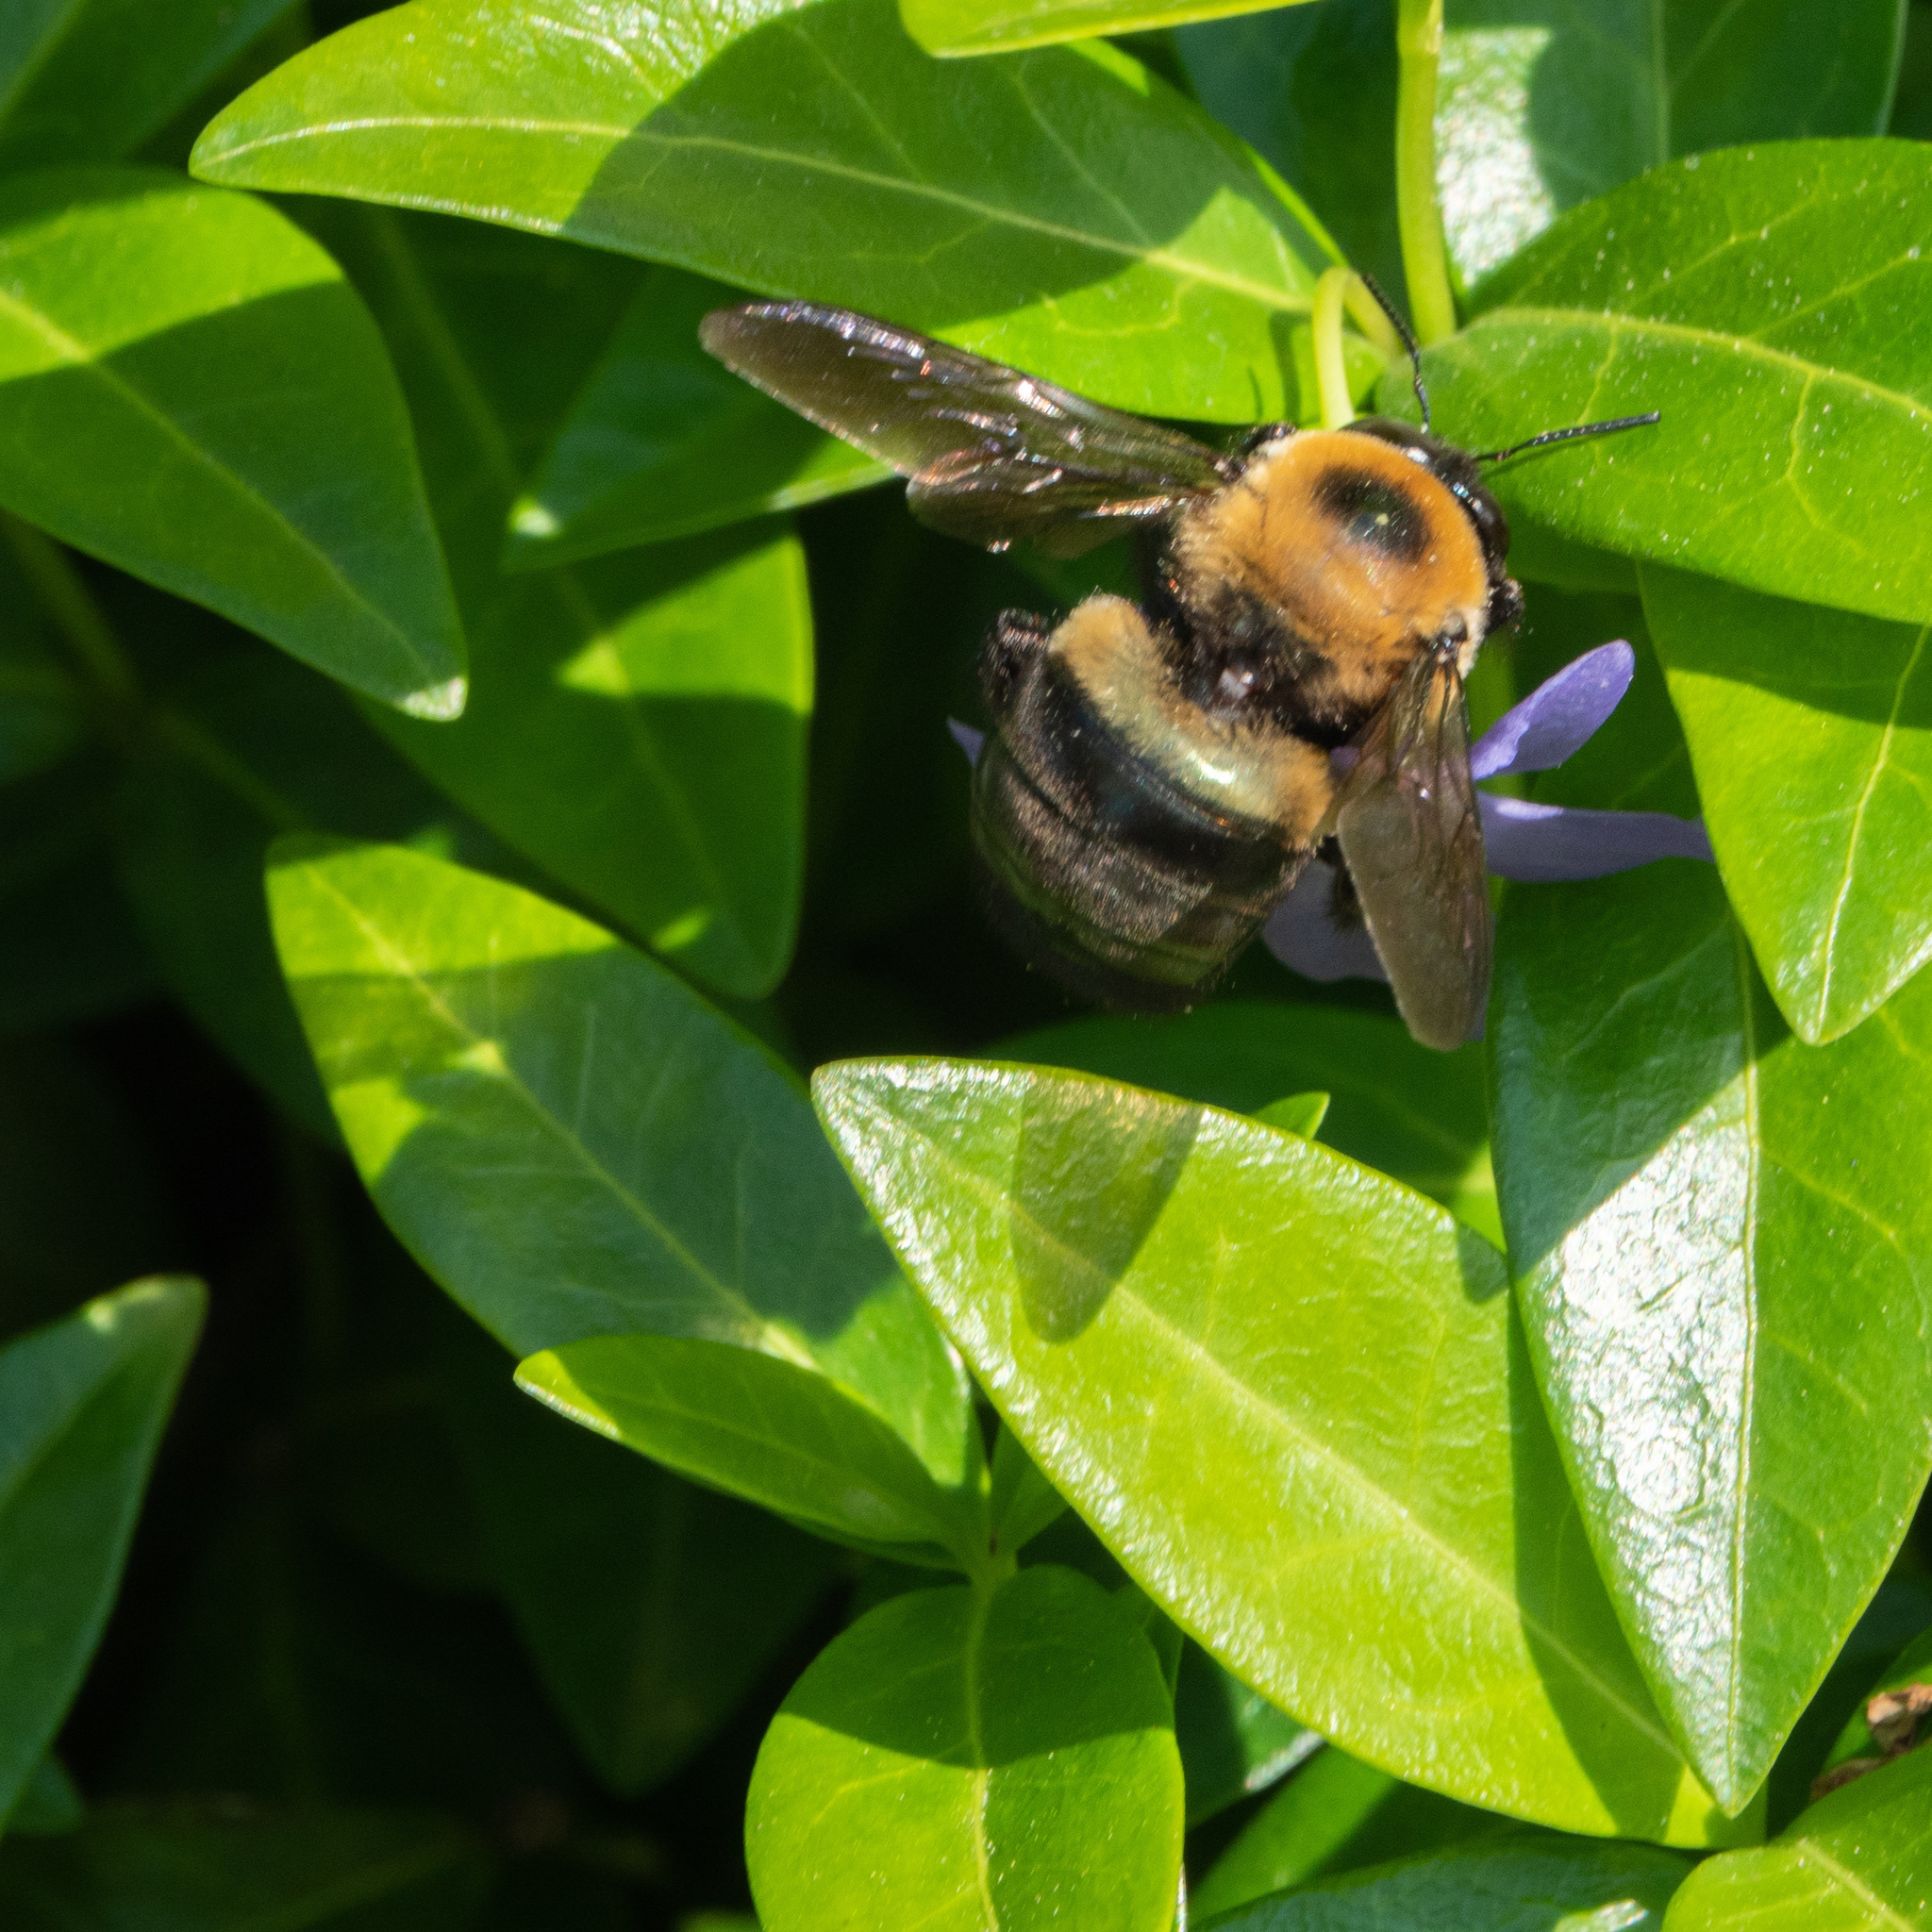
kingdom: Animalia
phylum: Arthropoda
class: Insecta
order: Hymenoptera
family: Apidae
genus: Xylocopa
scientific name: Xylocopa virginica
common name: Carpenter bee
